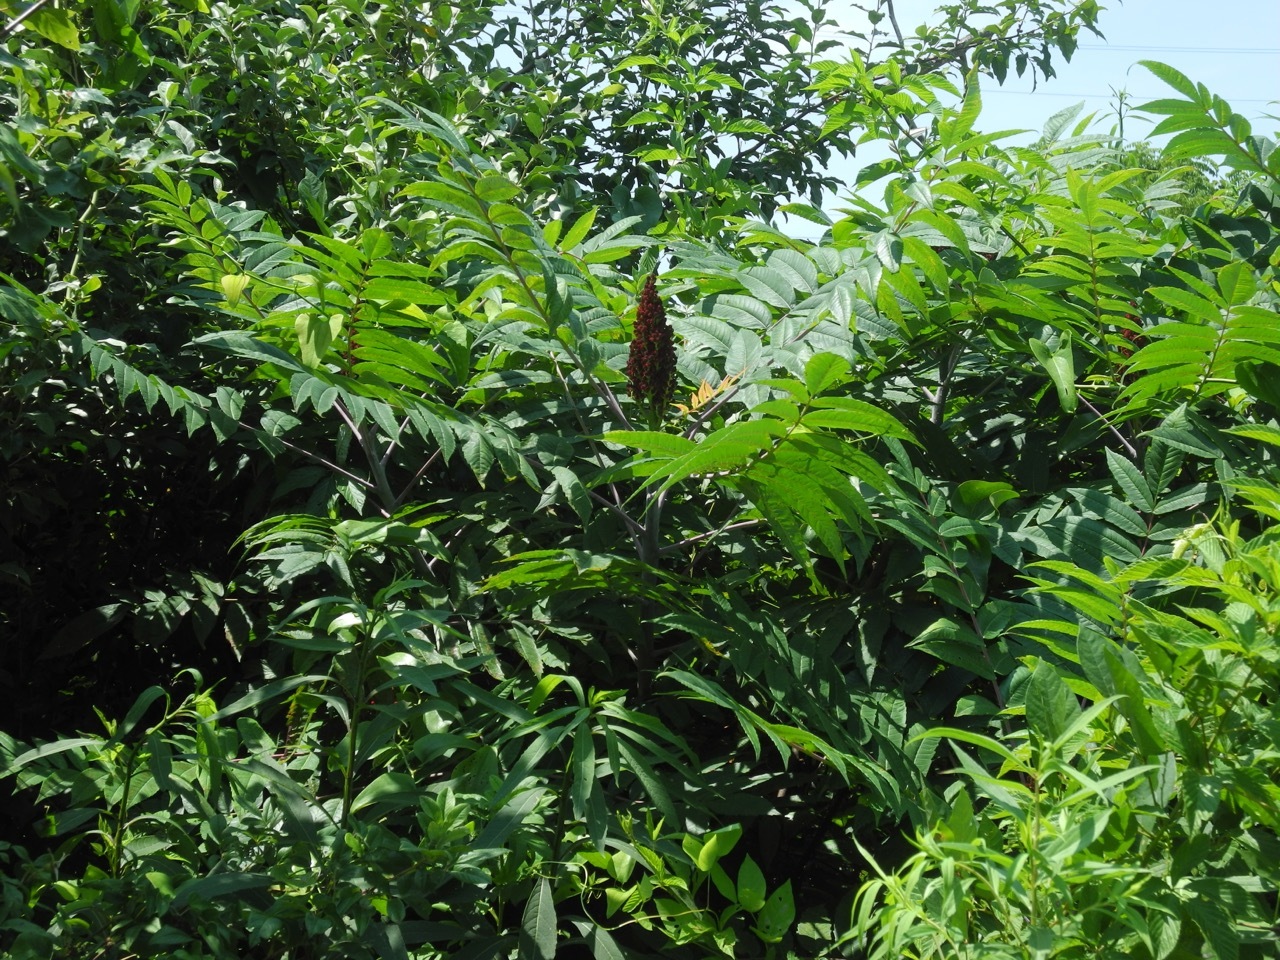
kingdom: Plantae
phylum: Tracheophyta
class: Magnoliopsida
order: Sapindales
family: Anacardiaceae
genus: Rhus
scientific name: Rhus glabra
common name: Scarlet sumac
